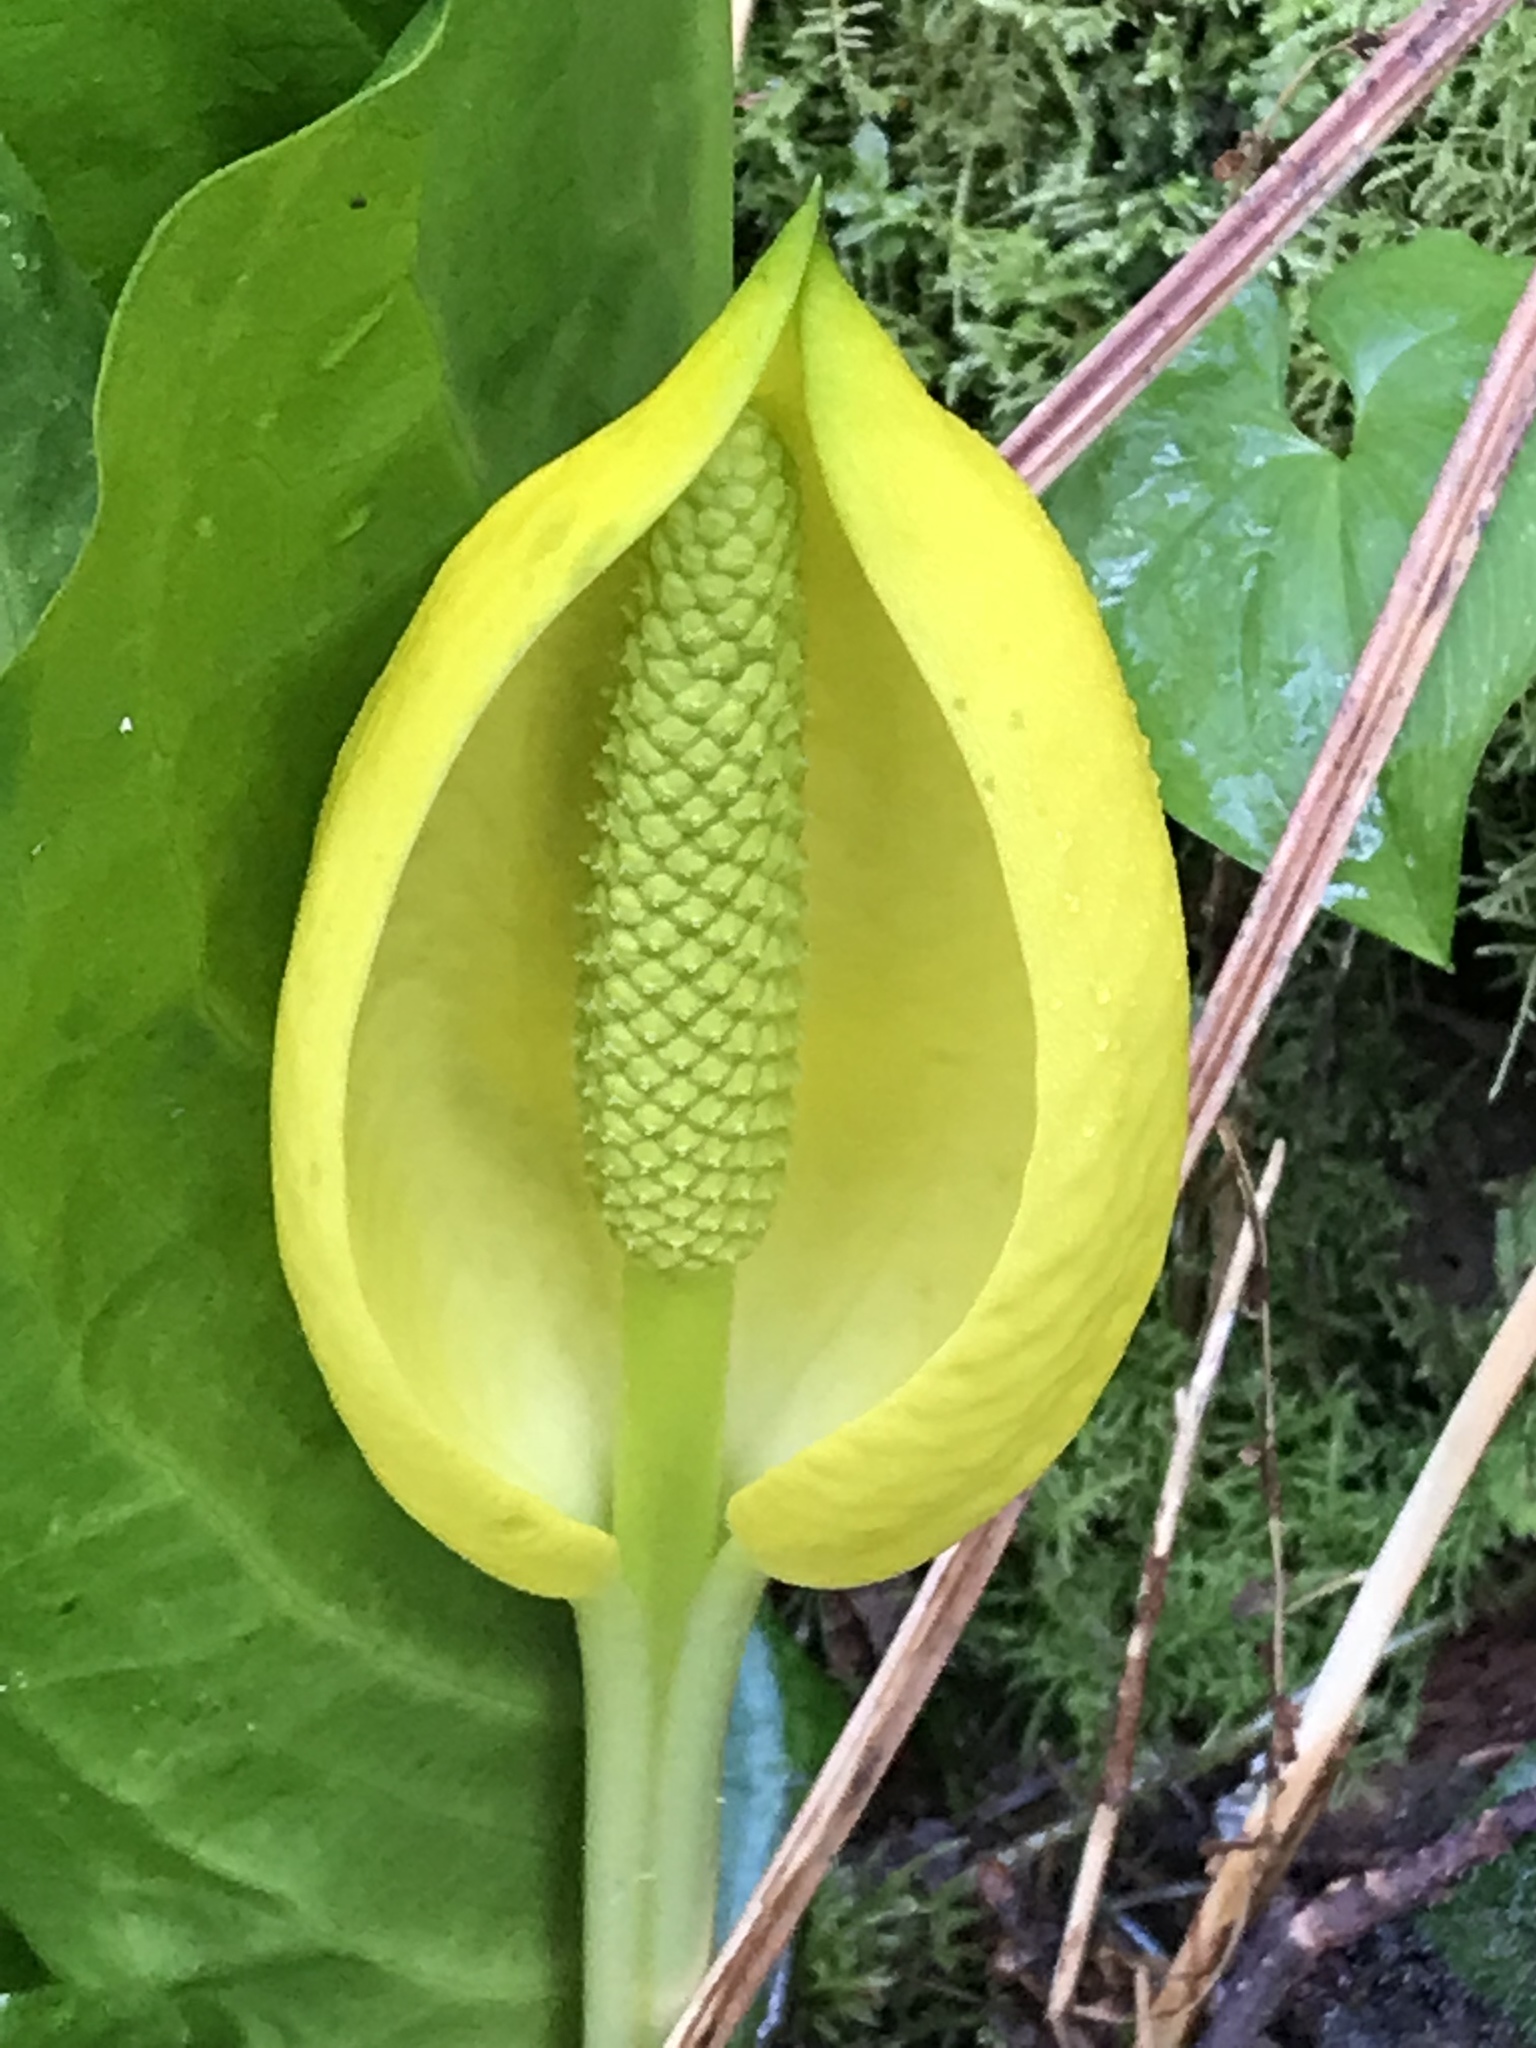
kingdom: Plantae
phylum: Tracheophyta
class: Liliopsida
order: Alismatales
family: Araceae
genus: Lysichiton
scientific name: Lysichiton americanus
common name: American skunk cabbage
